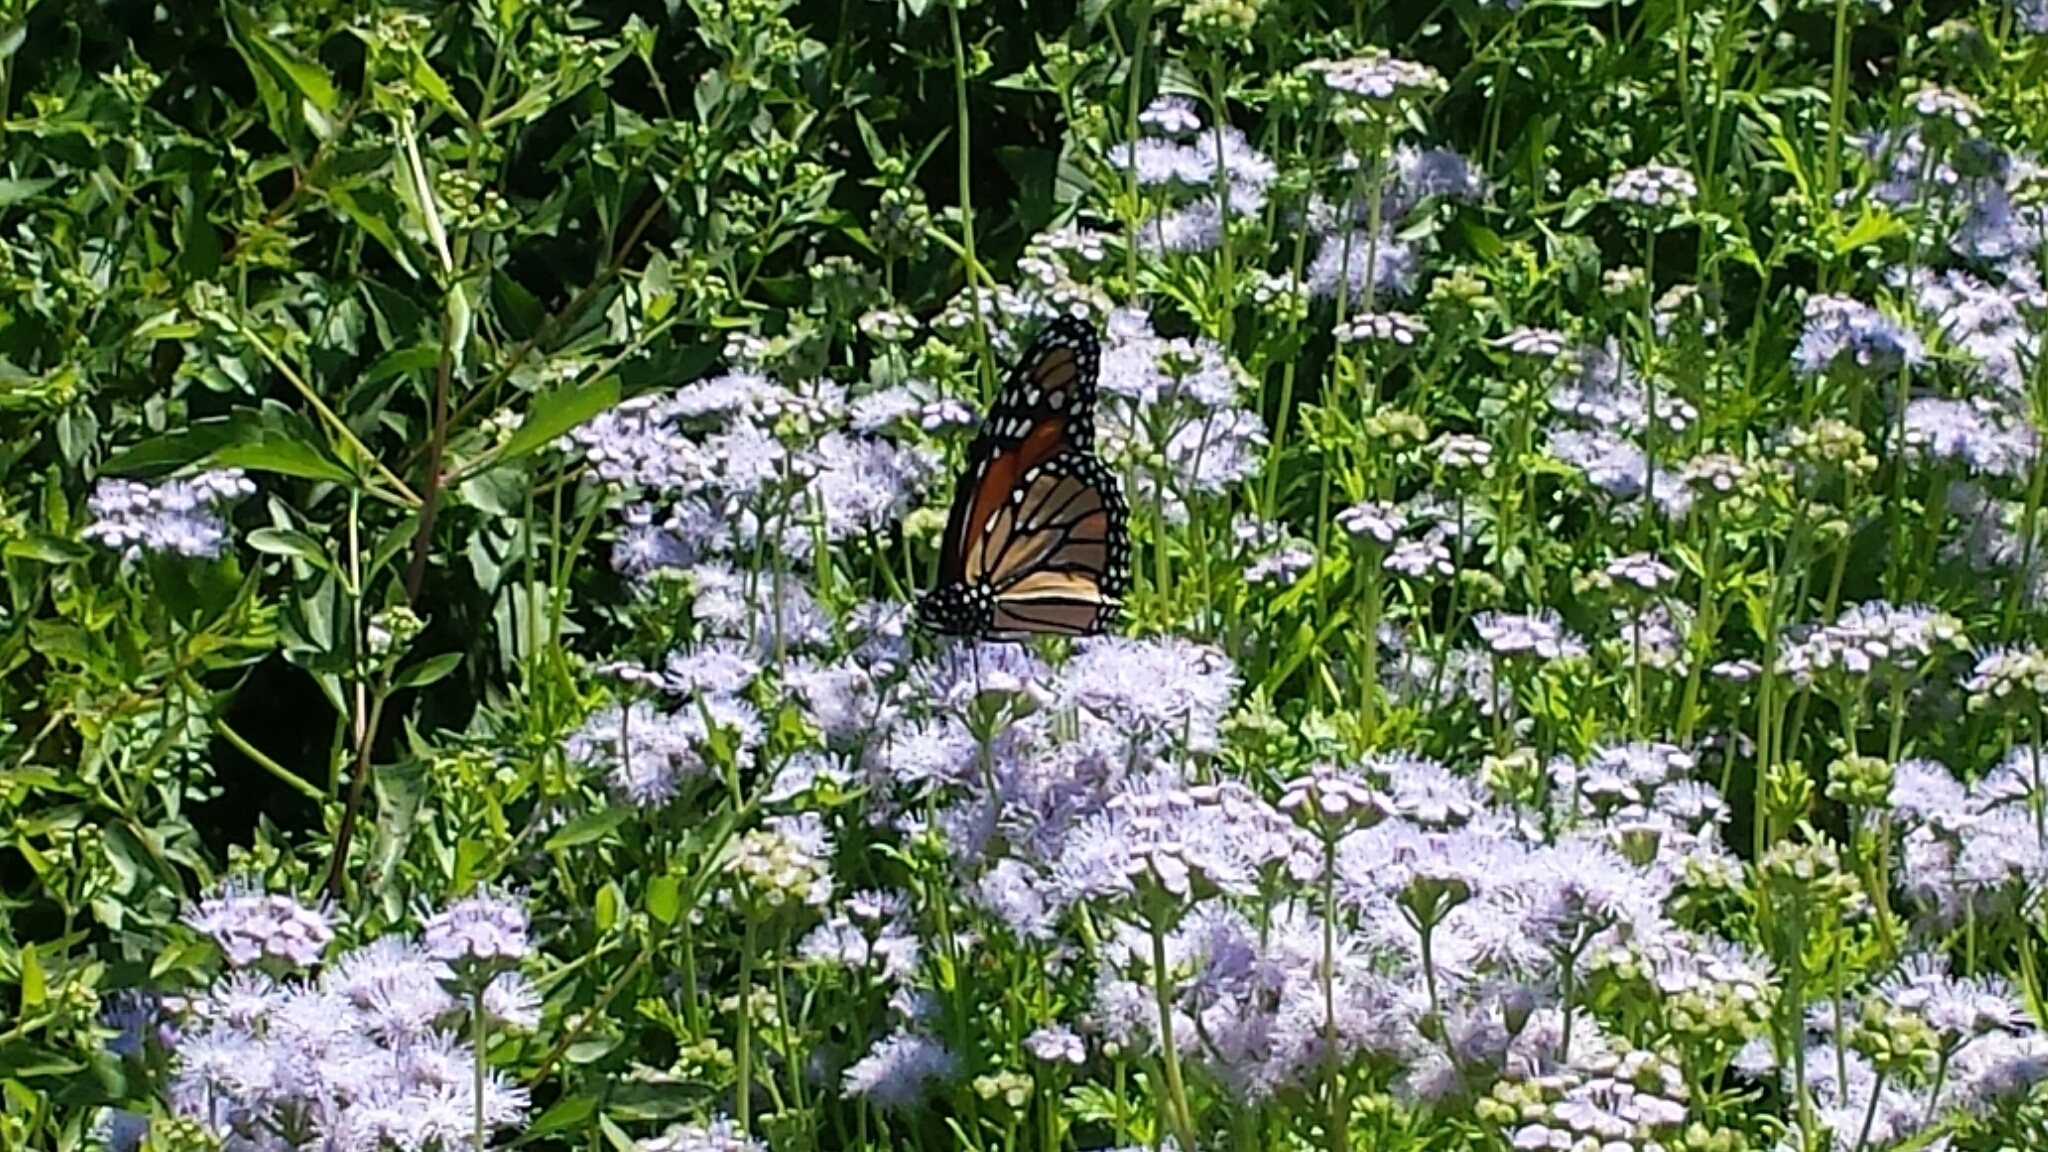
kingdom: Animalia
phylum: Arthropoda
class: Insecta
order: Lepidoptera
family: Nymphalidae
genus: Danaus
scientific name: Danaus plexippus
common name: Monarch
